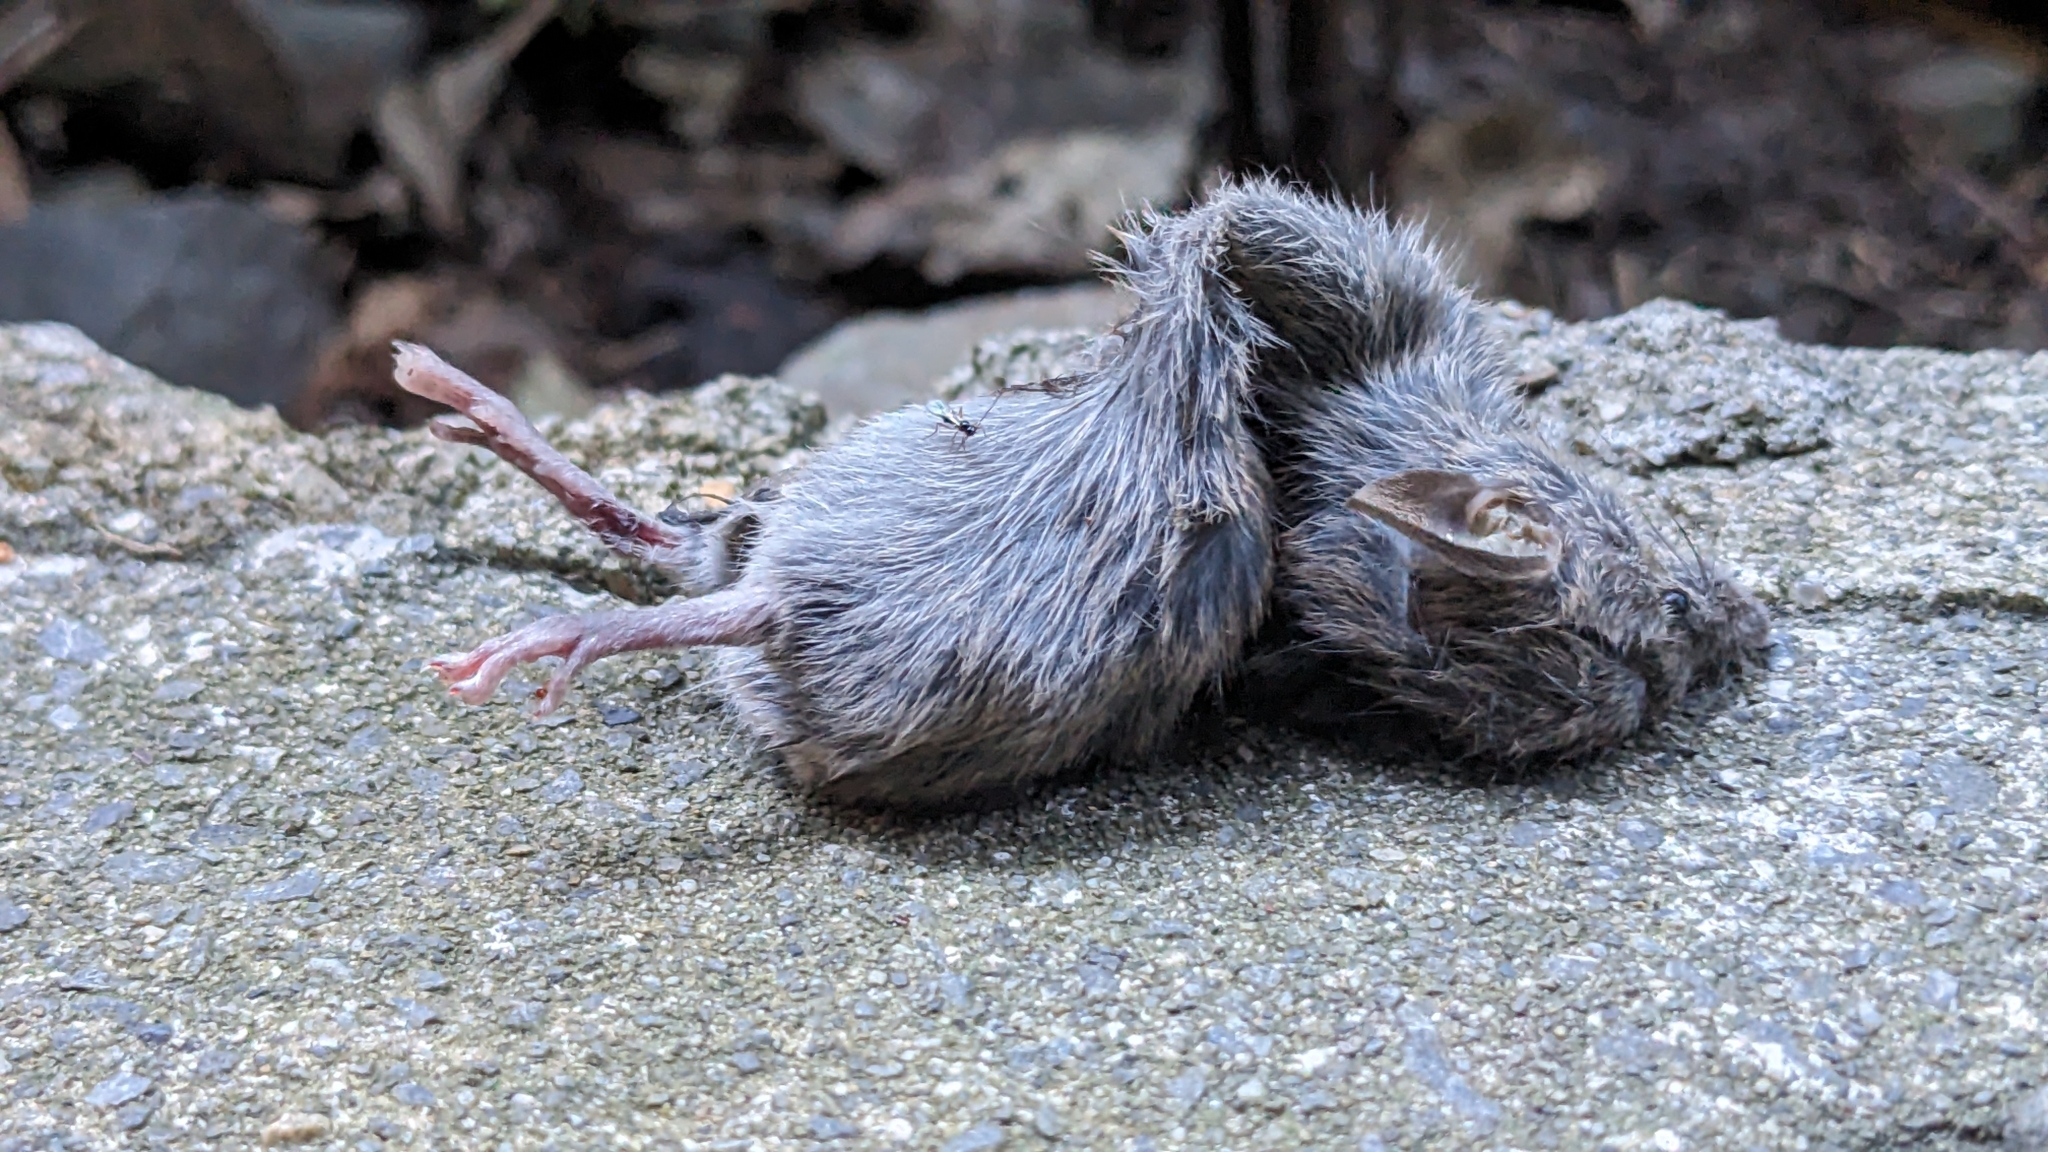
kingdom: Animalia
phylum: Chordata
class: Mammalia
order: Rodentia
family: Muridae
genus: Mus
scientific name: Mus musculus
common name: House mouse
